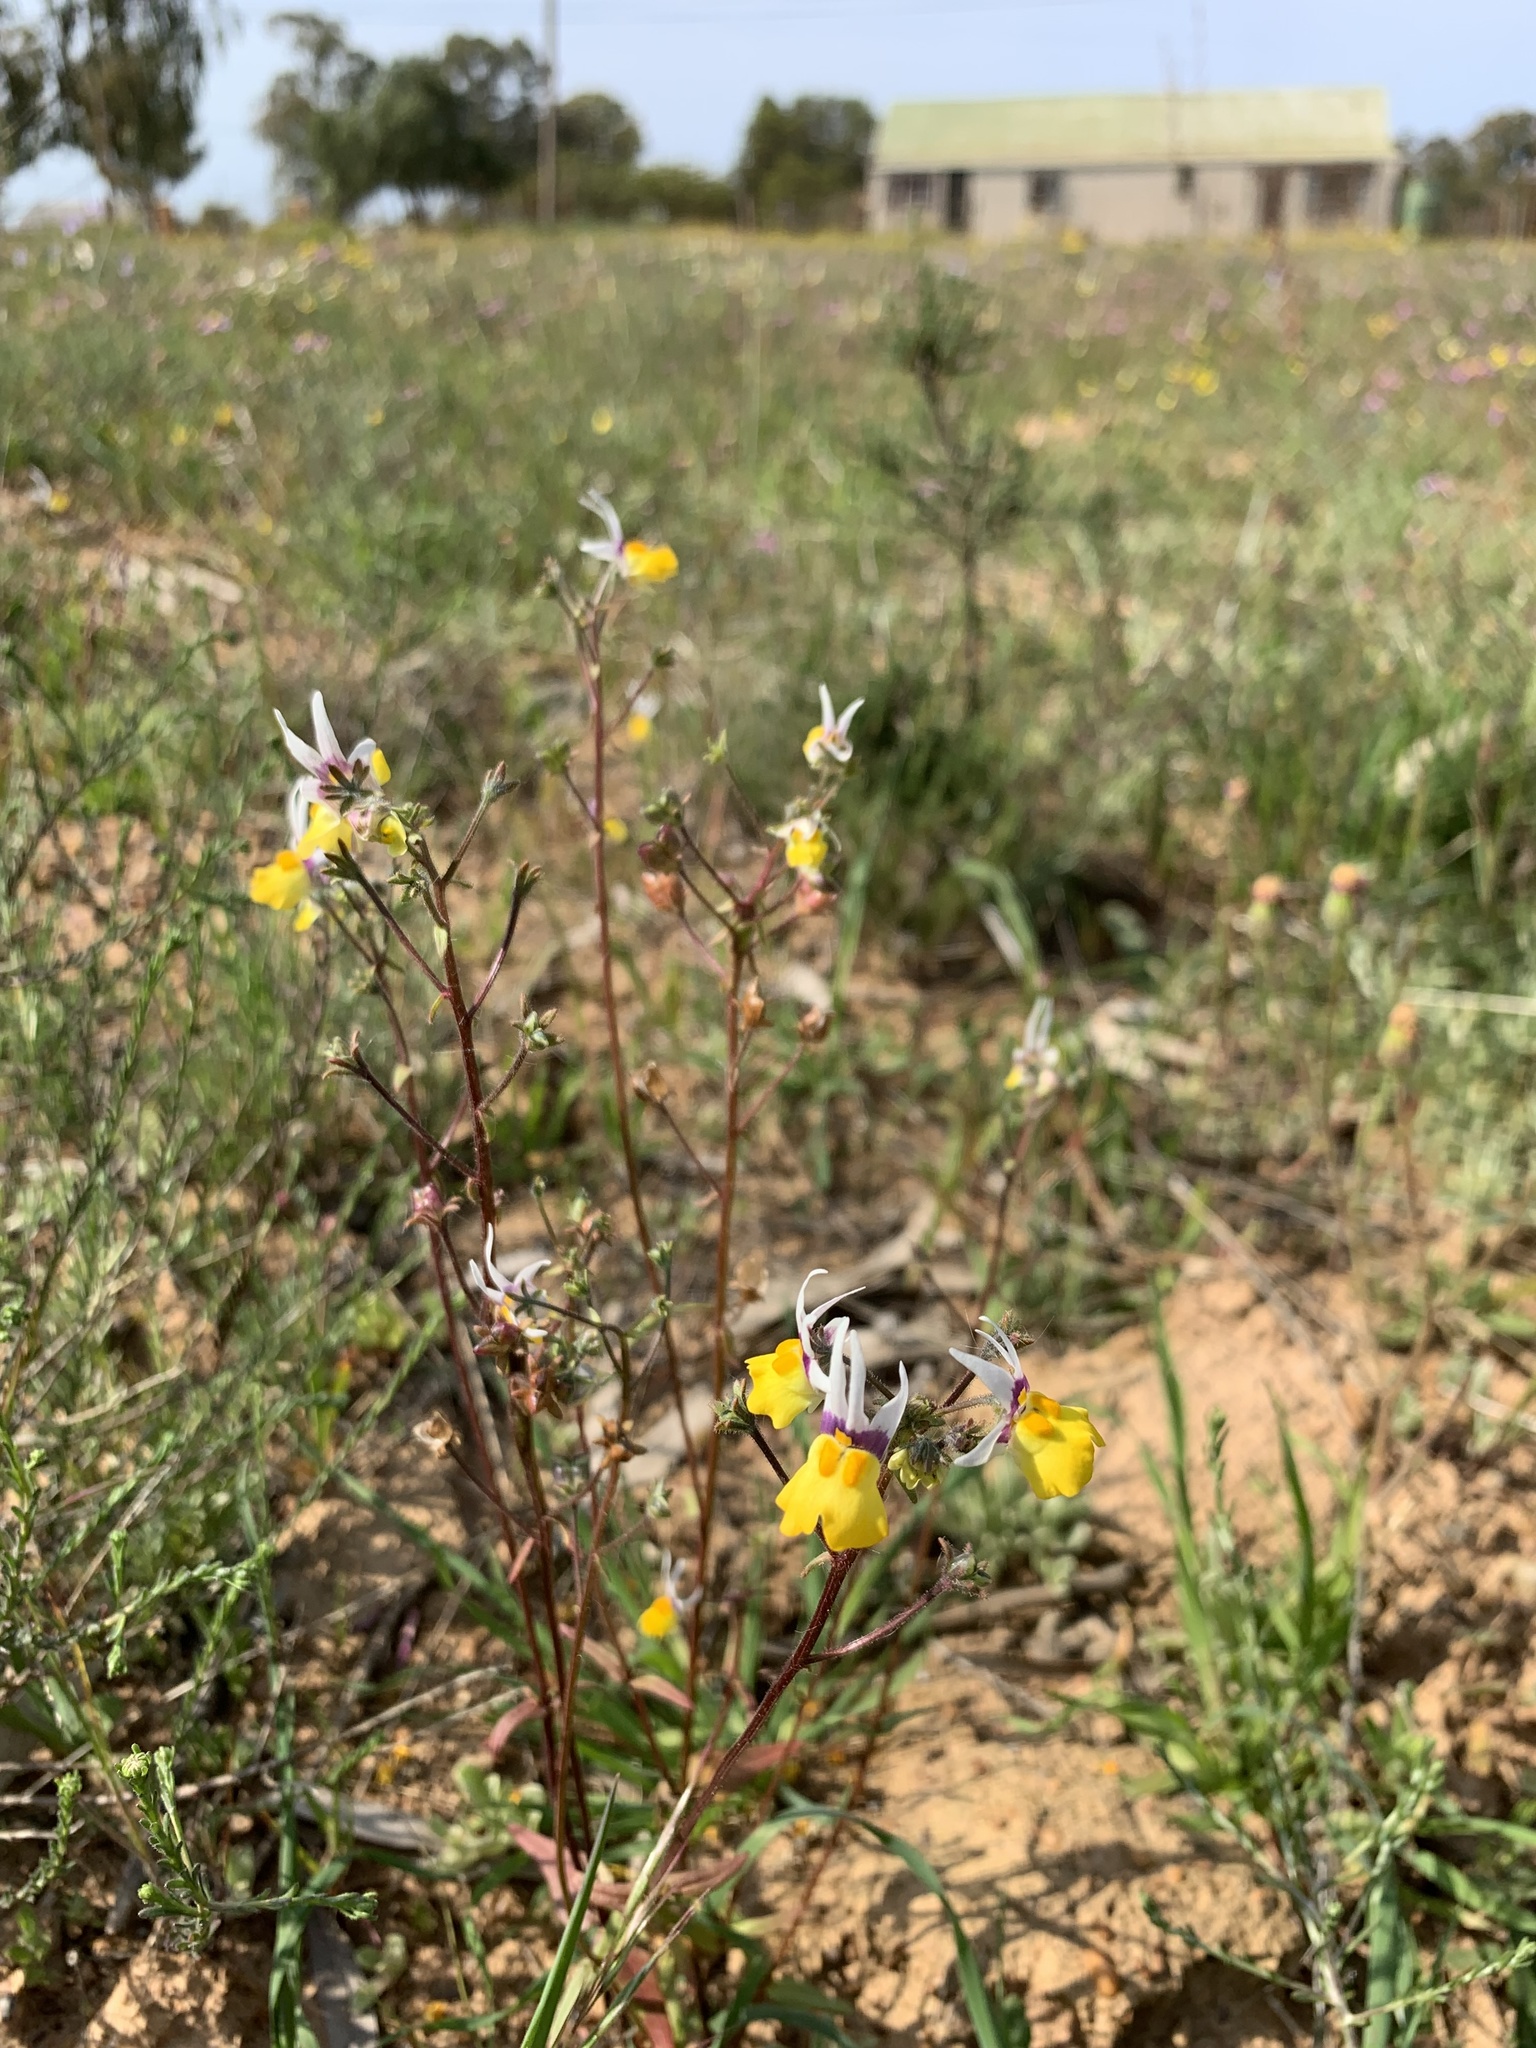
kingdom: Plantae
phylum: Tracheophyta
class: Magnoliopsida
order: Lamiales
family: Scrophulariaceae
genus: Nemesia
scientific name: Nemesia cheiranthus
